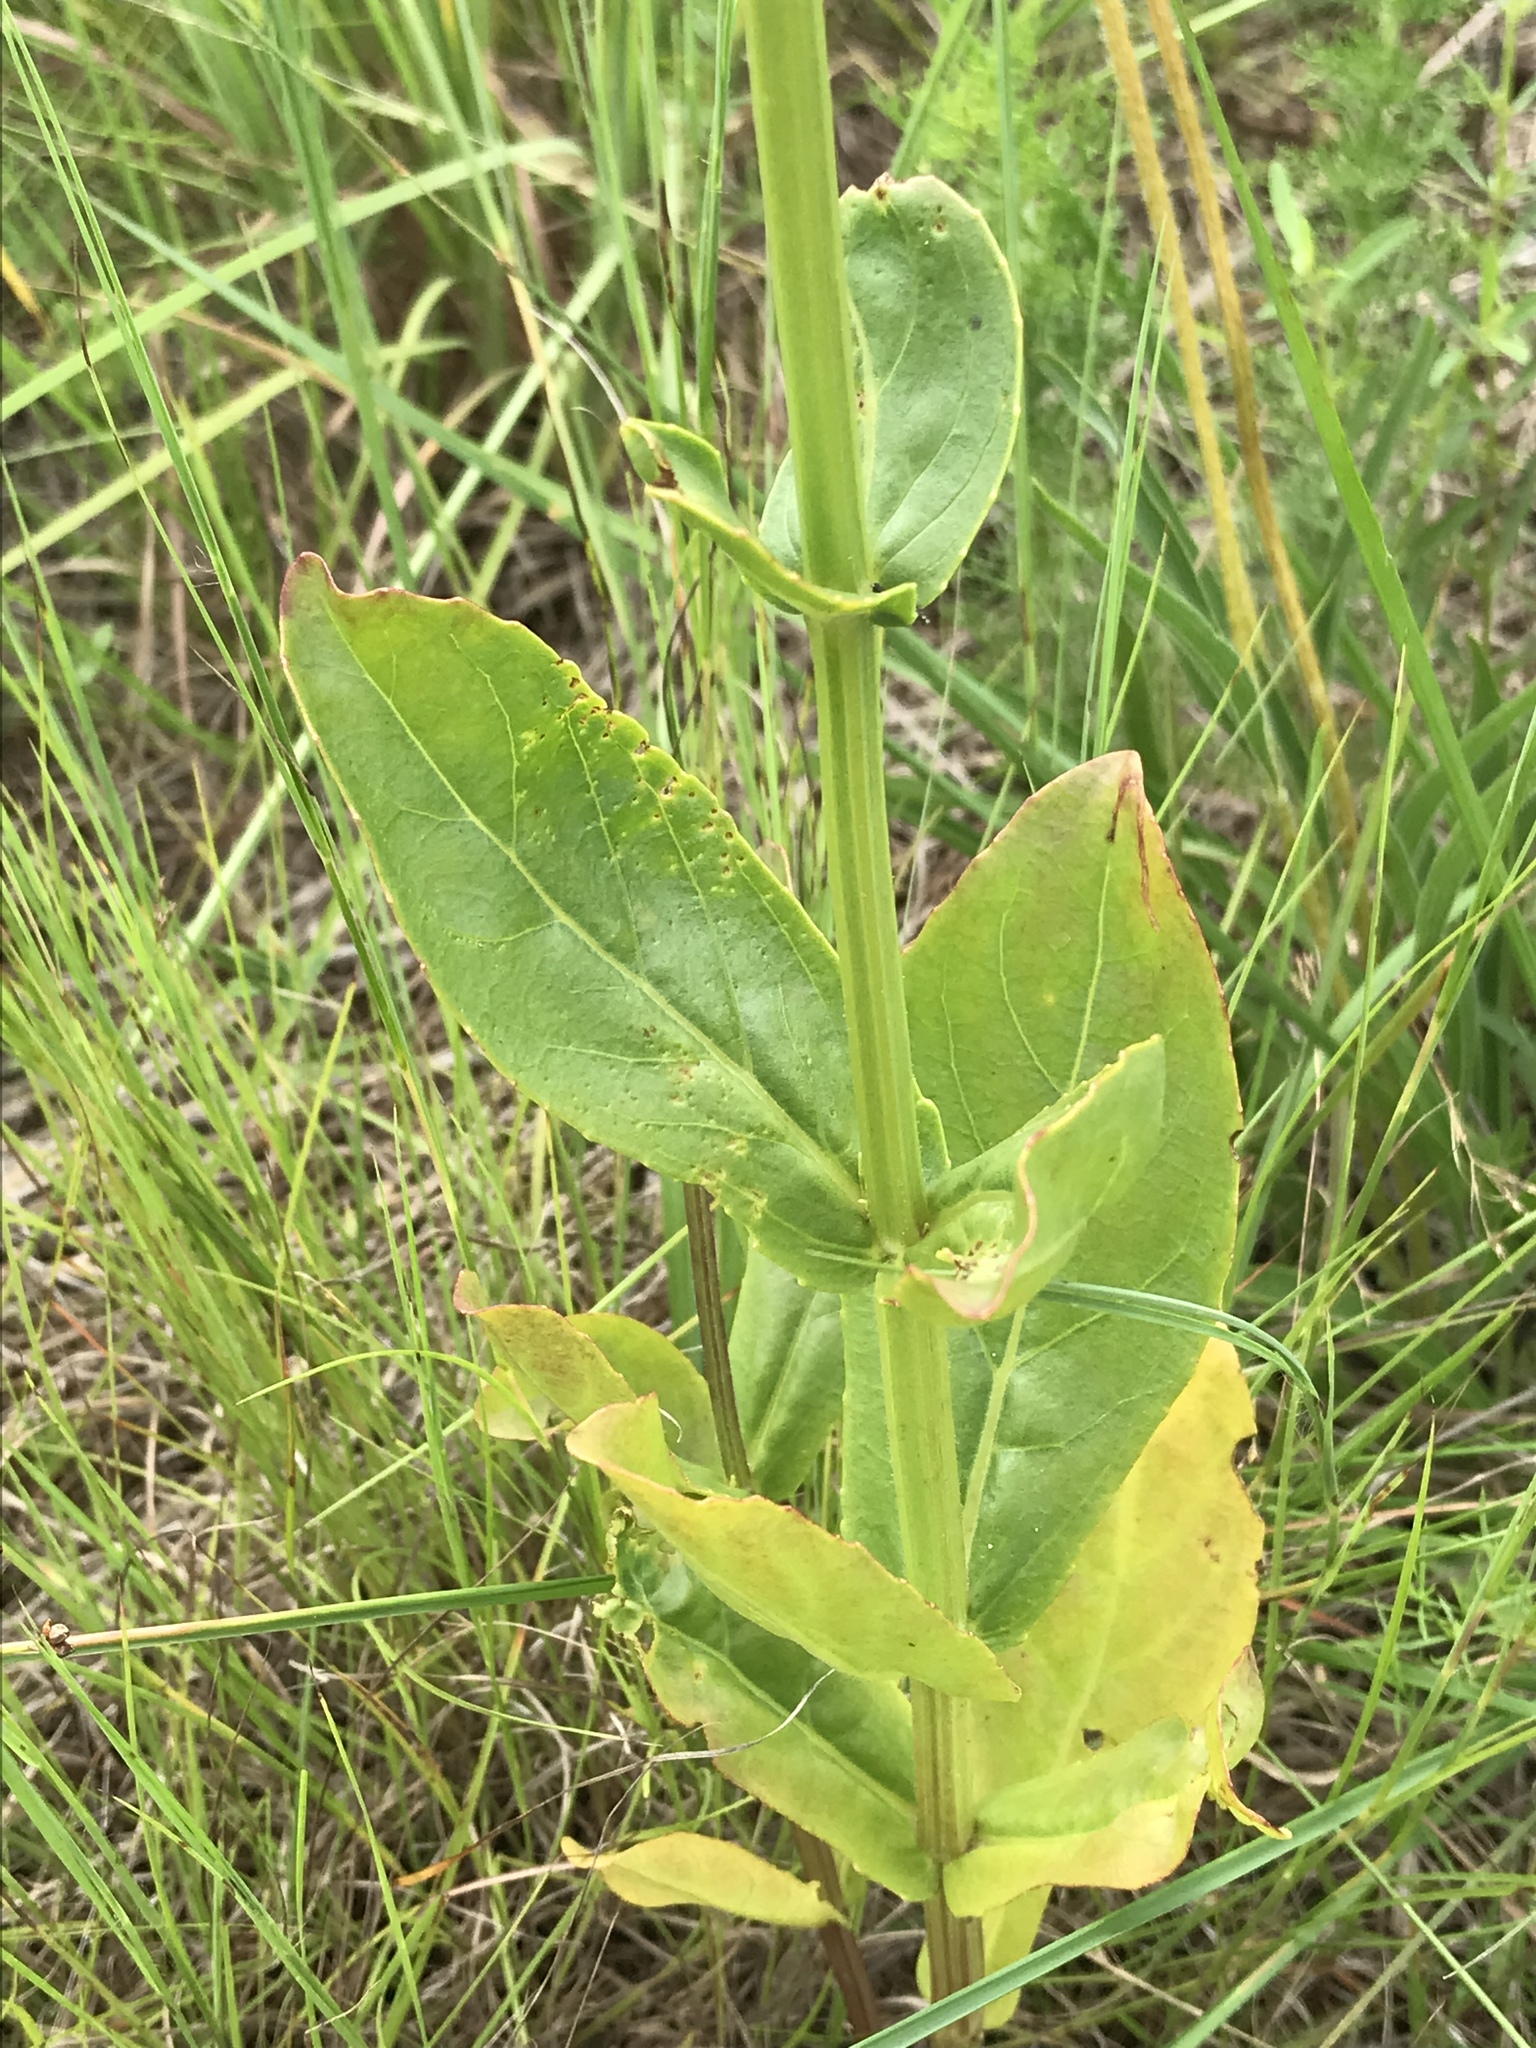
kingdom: Plantae
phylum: Tracheophyta
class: Magnoliopsida
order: Lamiales
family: Lamiaceae
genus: Physostegia
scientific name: Physostegia digitalis
